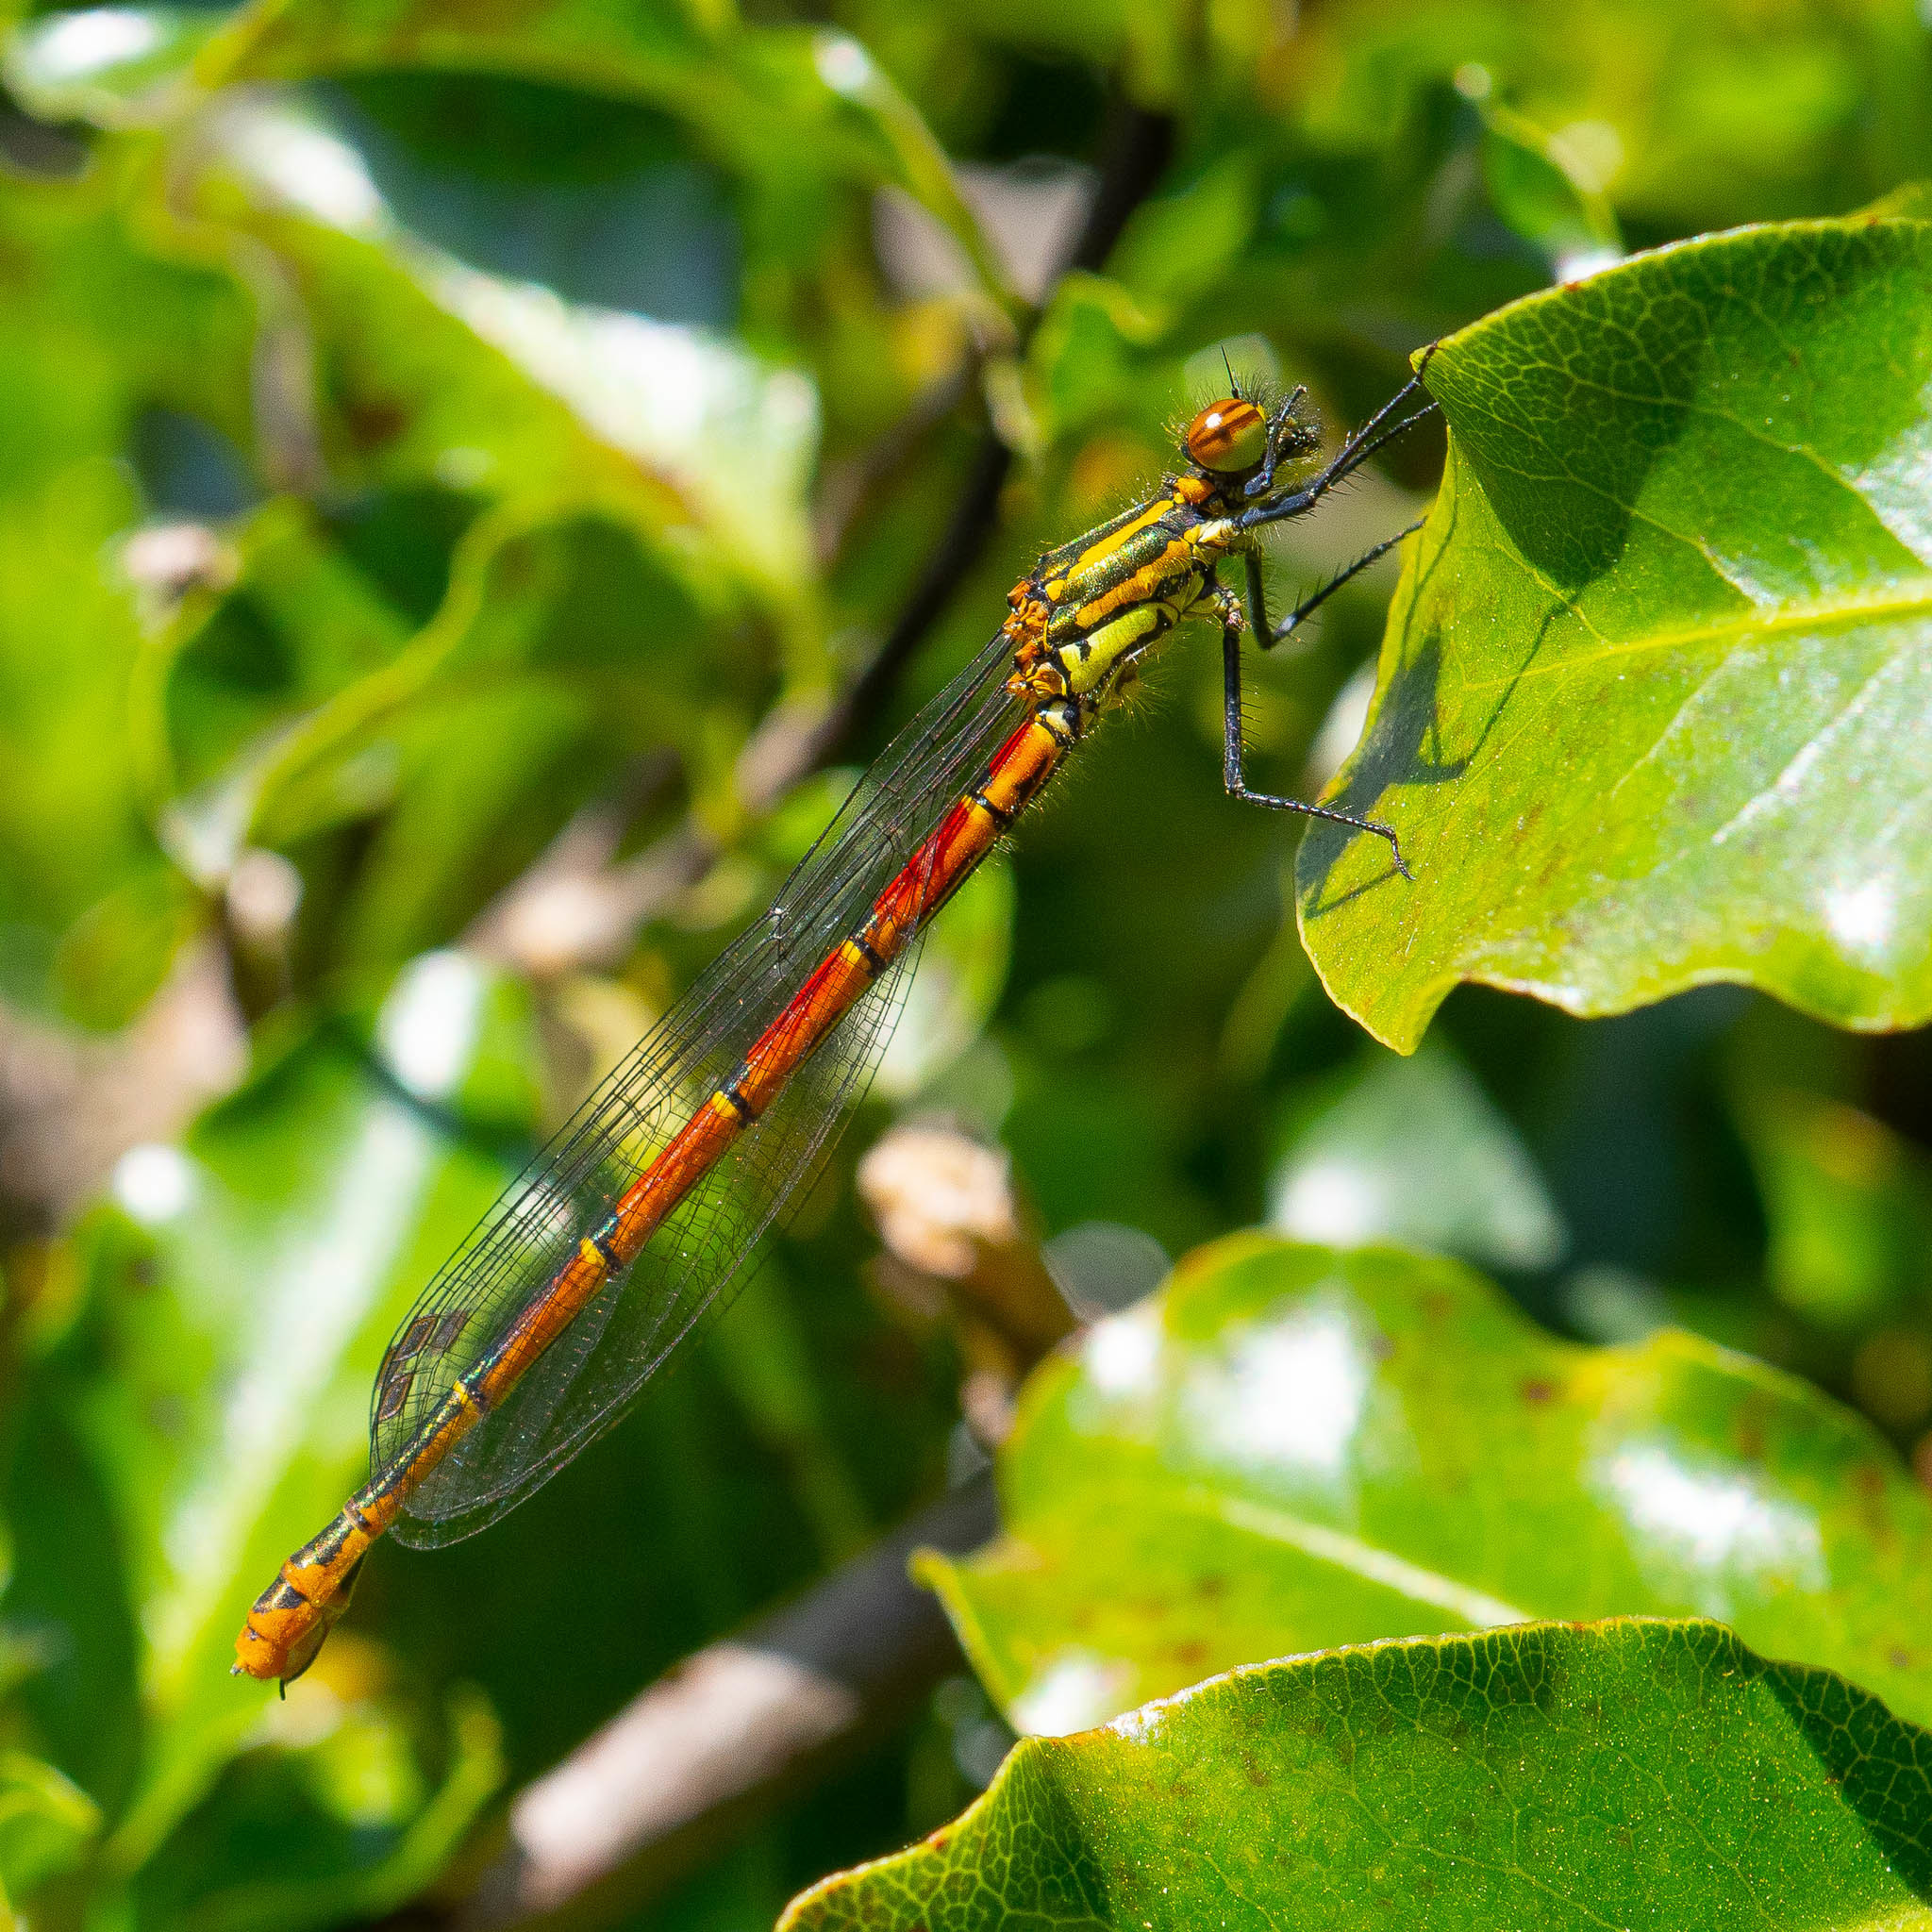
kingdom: Animalia
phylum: Arthropoda
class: Insecta
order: Odonata
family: Coenagrionidae
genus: Pyrrhosoma
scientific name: Pyrrhosoma nymphula
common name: Large red damsel
